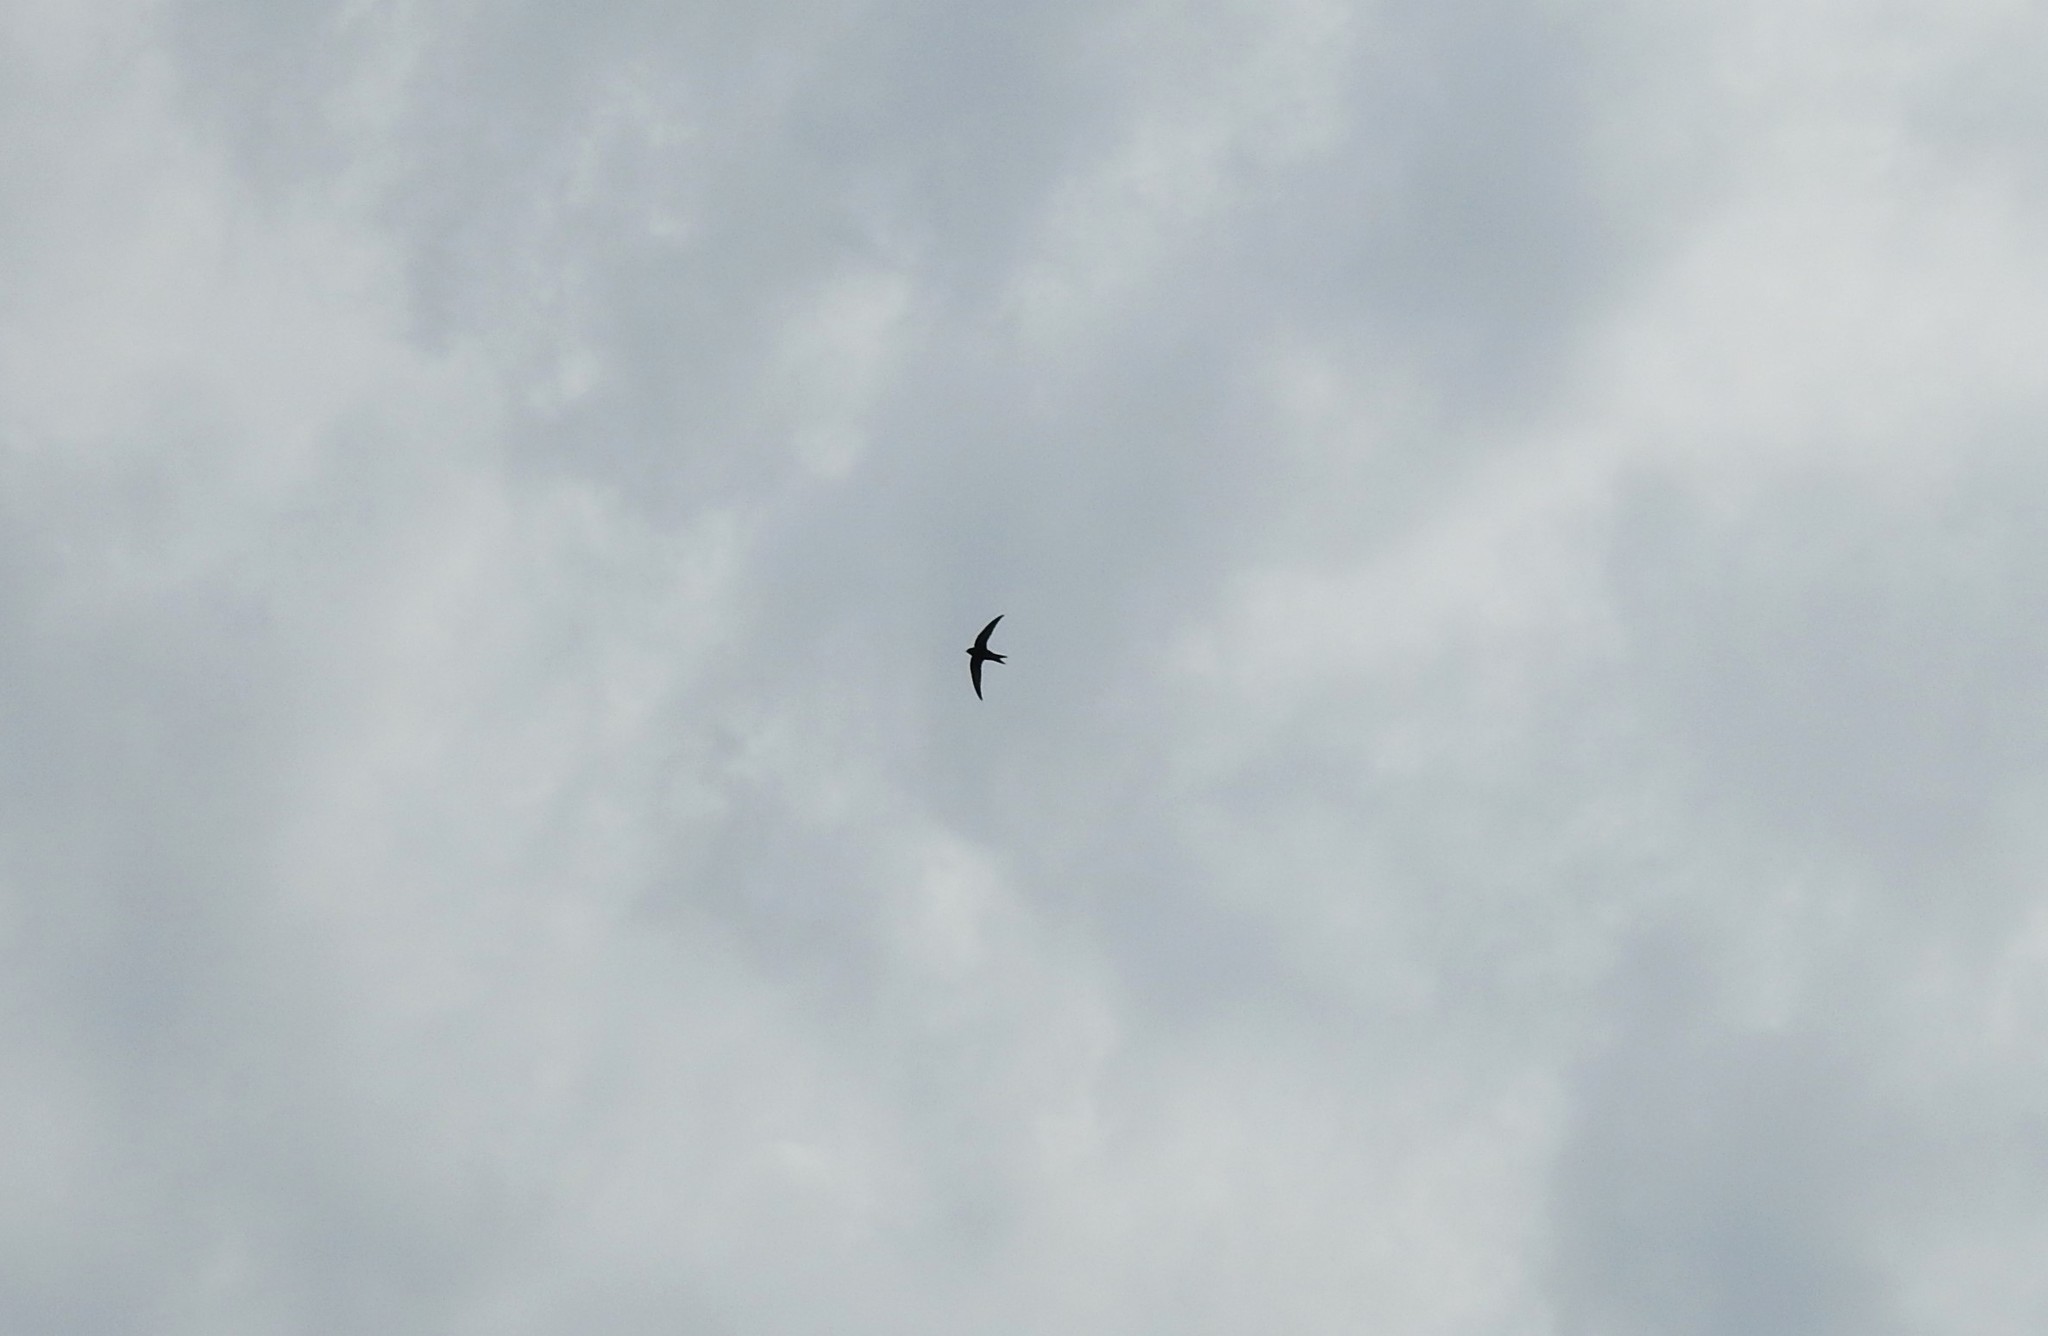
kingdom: Animalia
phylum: Chordata
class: Aves
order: Apodiformes
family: Apodidae
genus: Apus
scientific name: Apus apus
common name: Common swift
